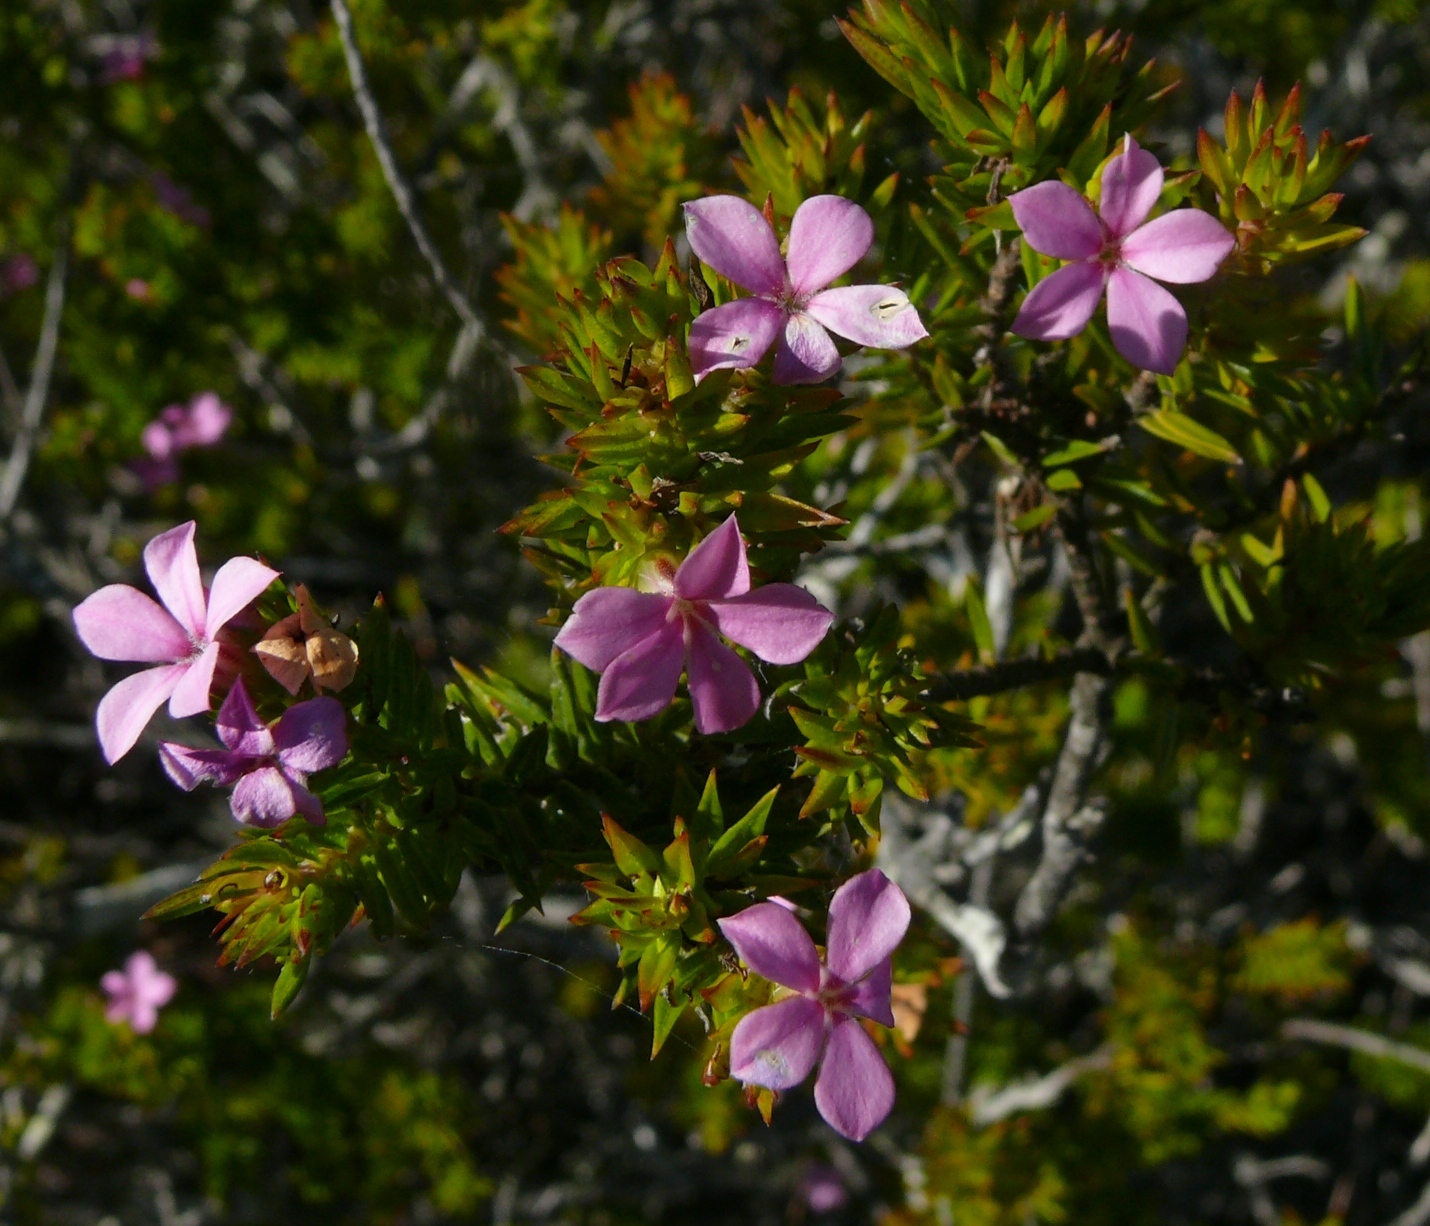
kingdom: Plantae
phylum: Tracheophyta
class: Magnoliopsida
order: Sapindales
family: Rutaceae
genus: Acmadenia
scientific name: Acmadenia obtusata
